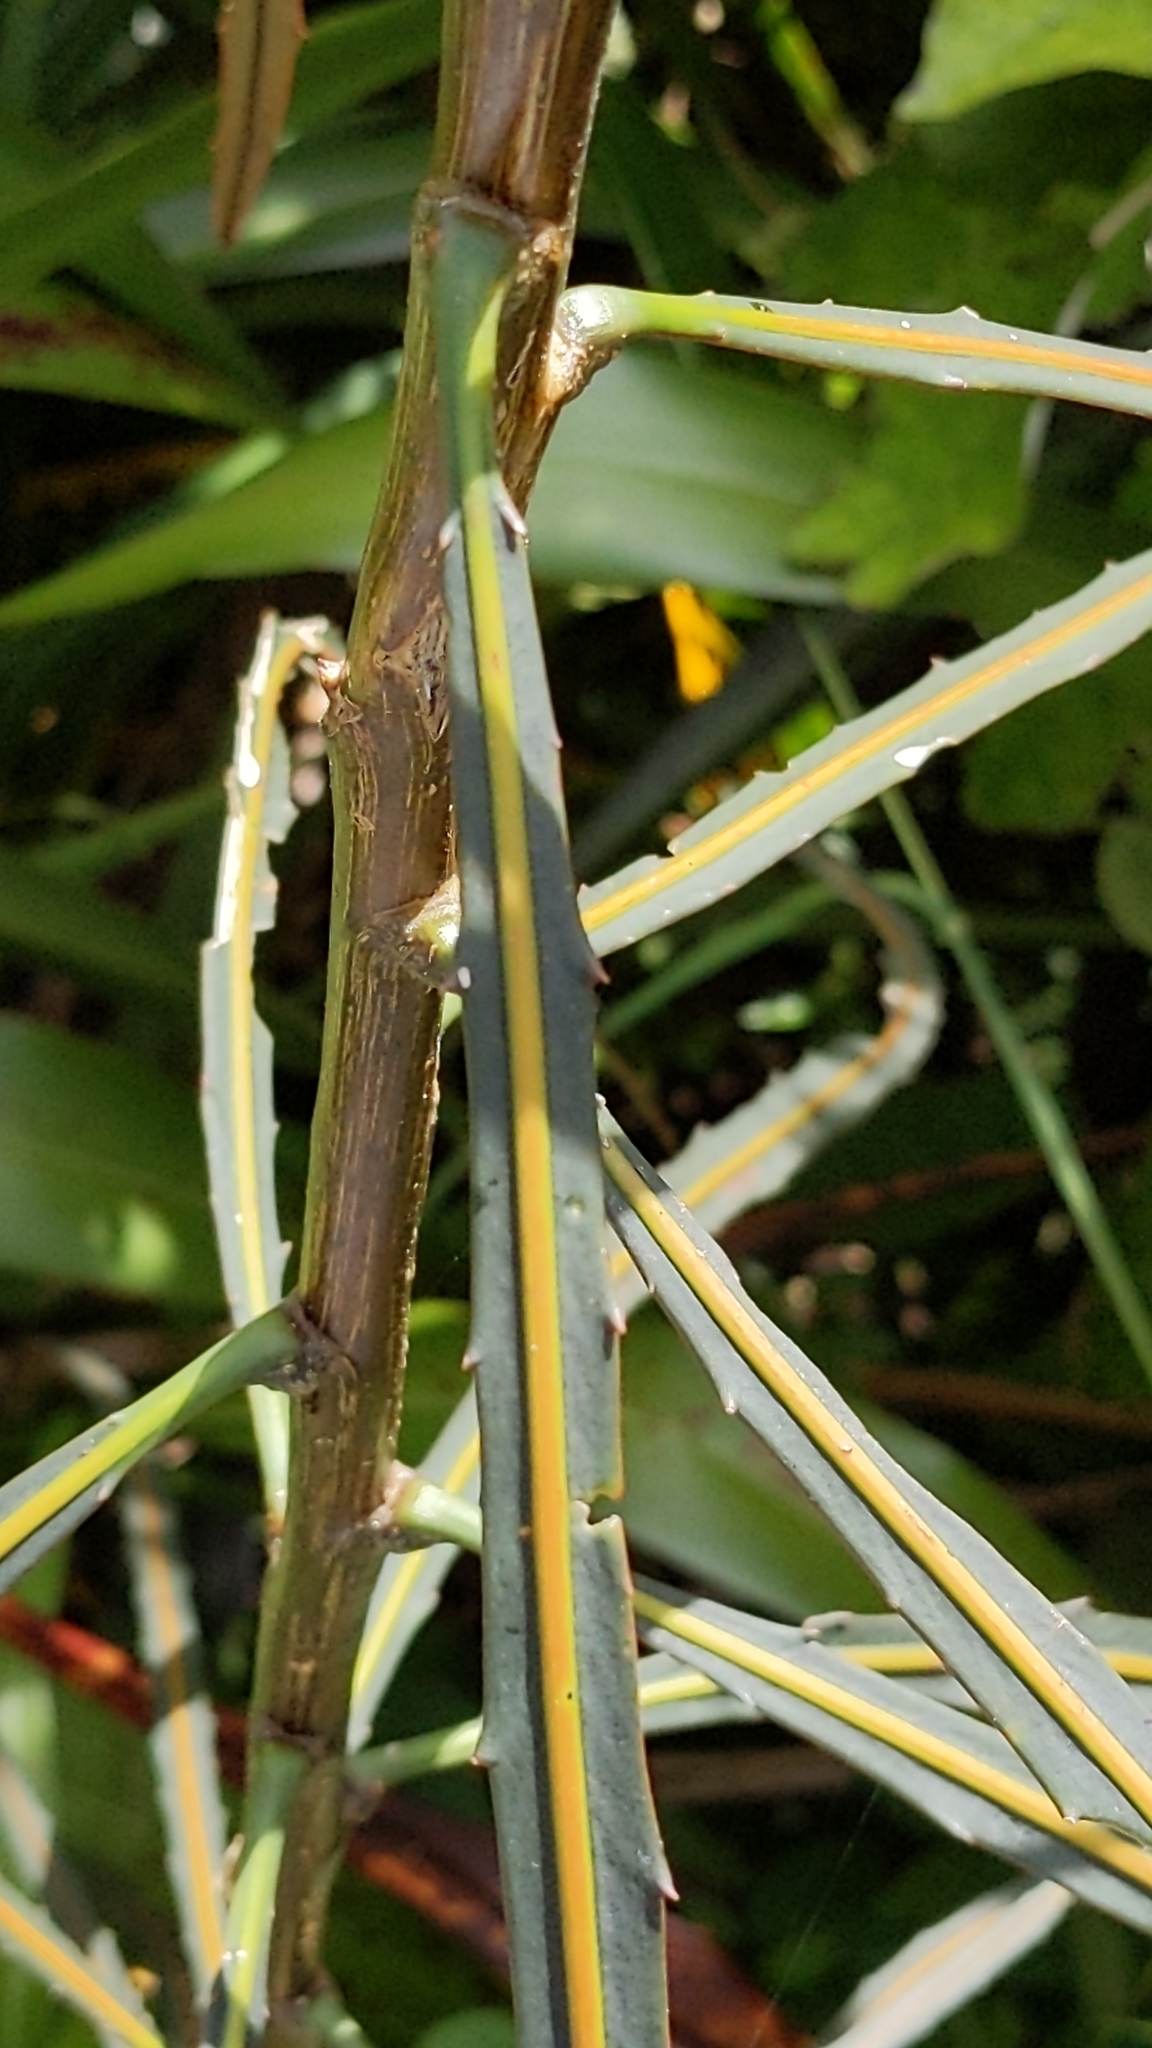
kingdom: Plantae
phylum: Tracheophyta
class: Magnoliopsida
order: Apiales
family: Araliaceae
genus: Pseudopanax
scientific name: Pseudopanax crassifolius
